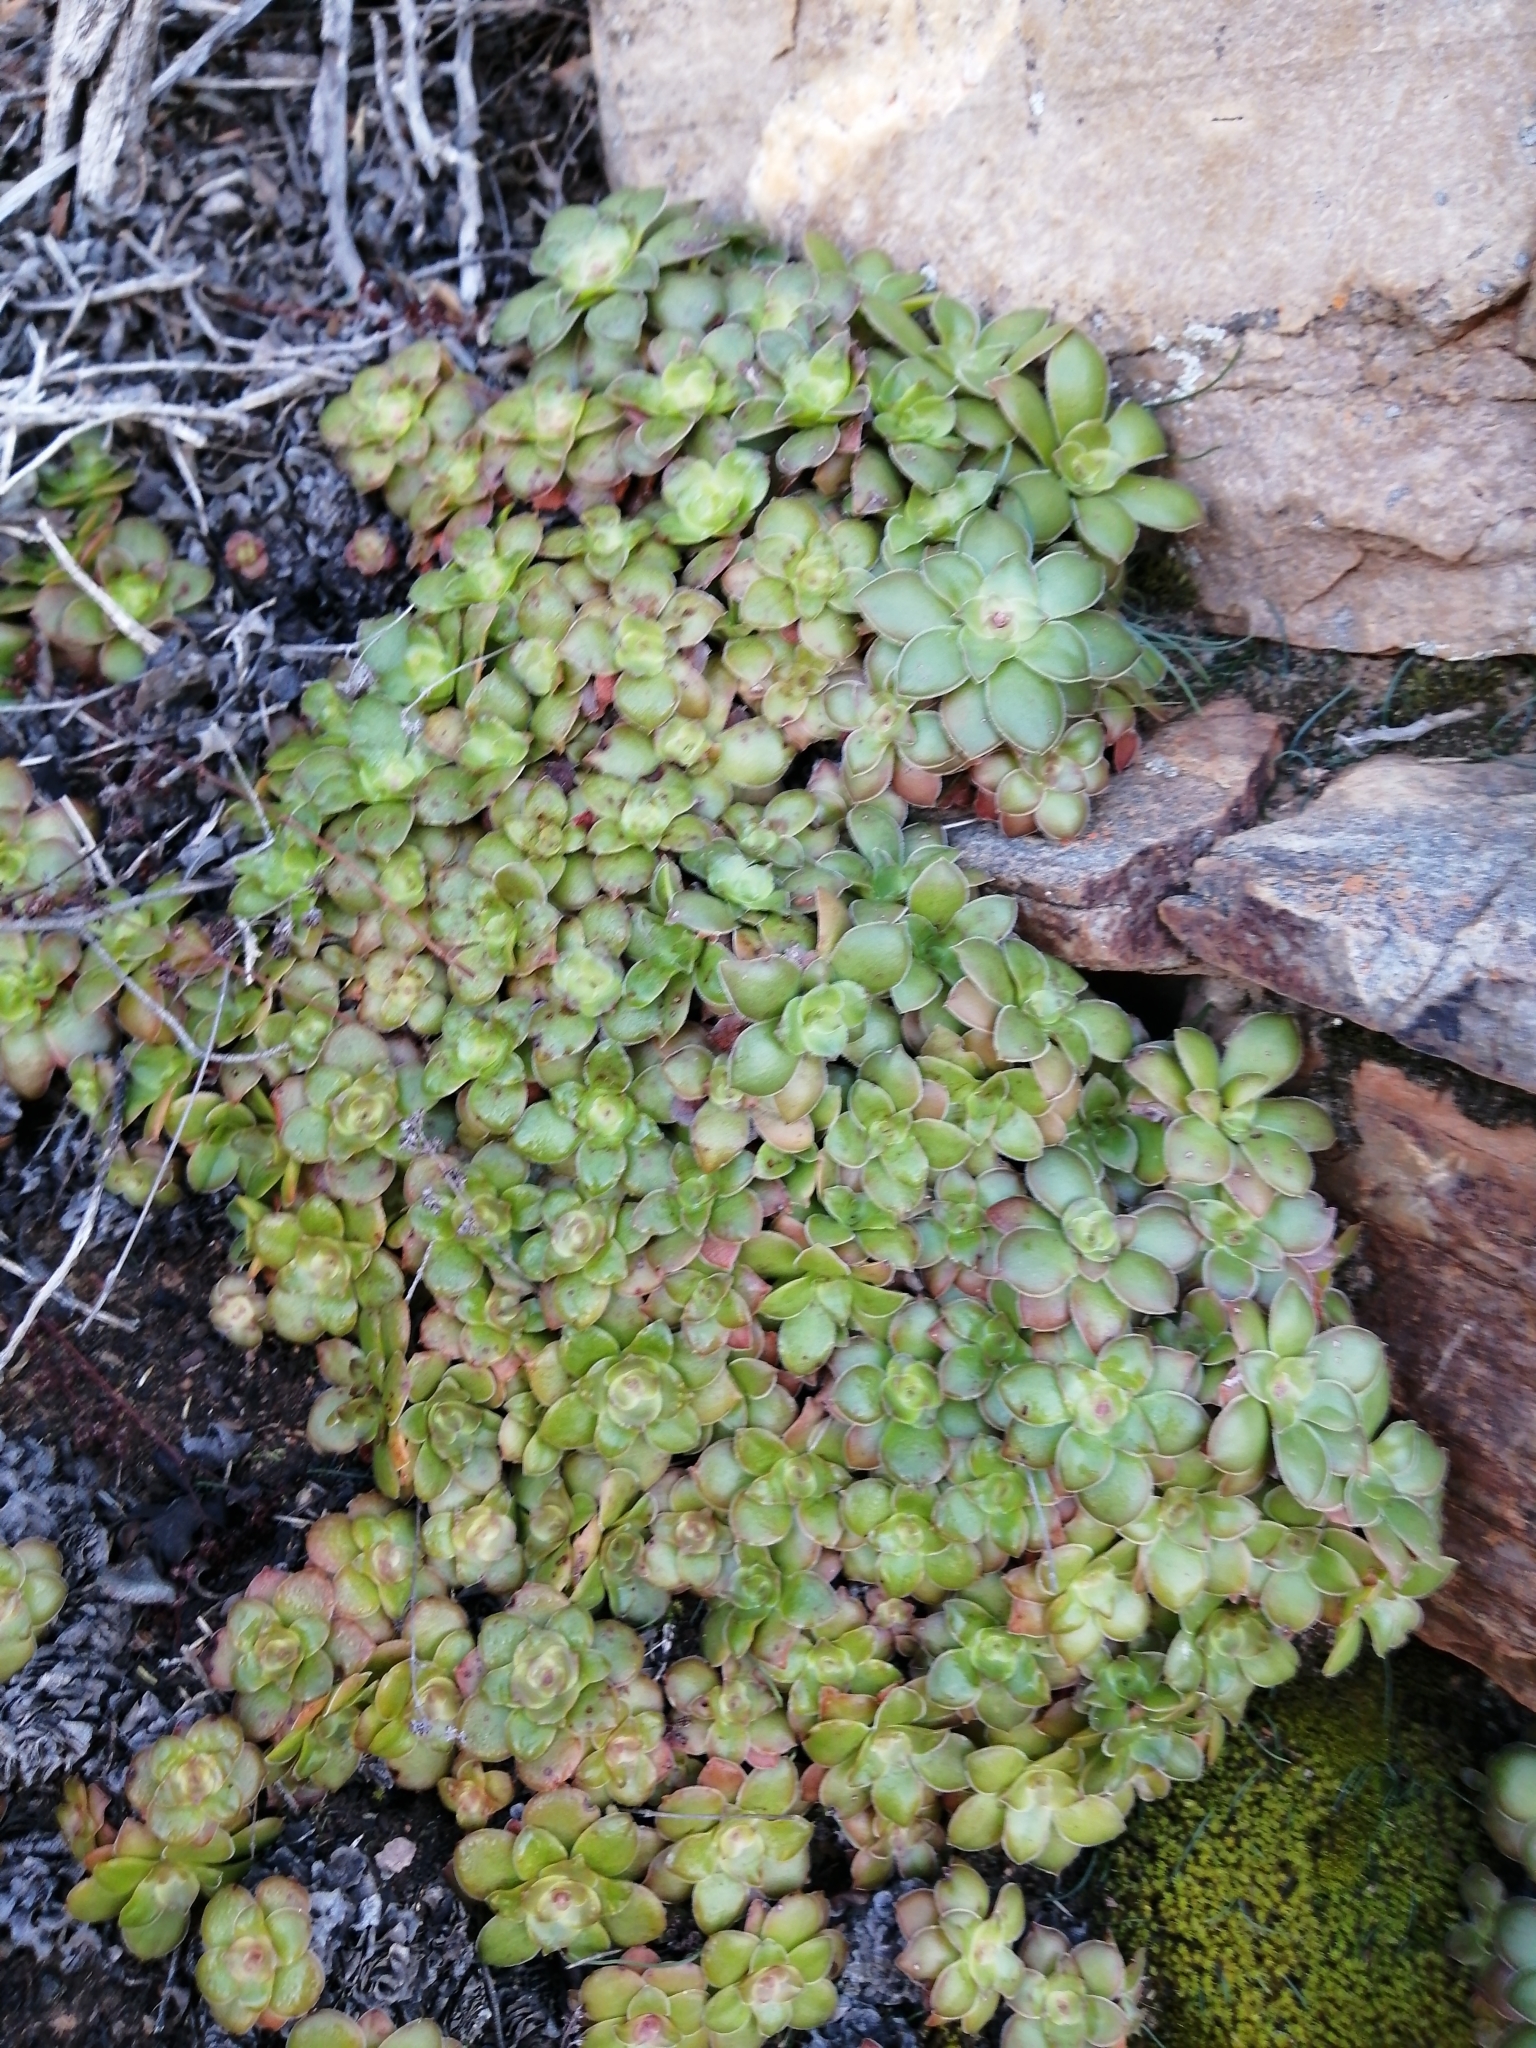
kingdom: Plantae
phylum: Tracheophyta
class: Magnoliopsida
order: Saxifragales
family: Crassulaceae
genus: Crassula
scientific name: Crassula orbicularis
